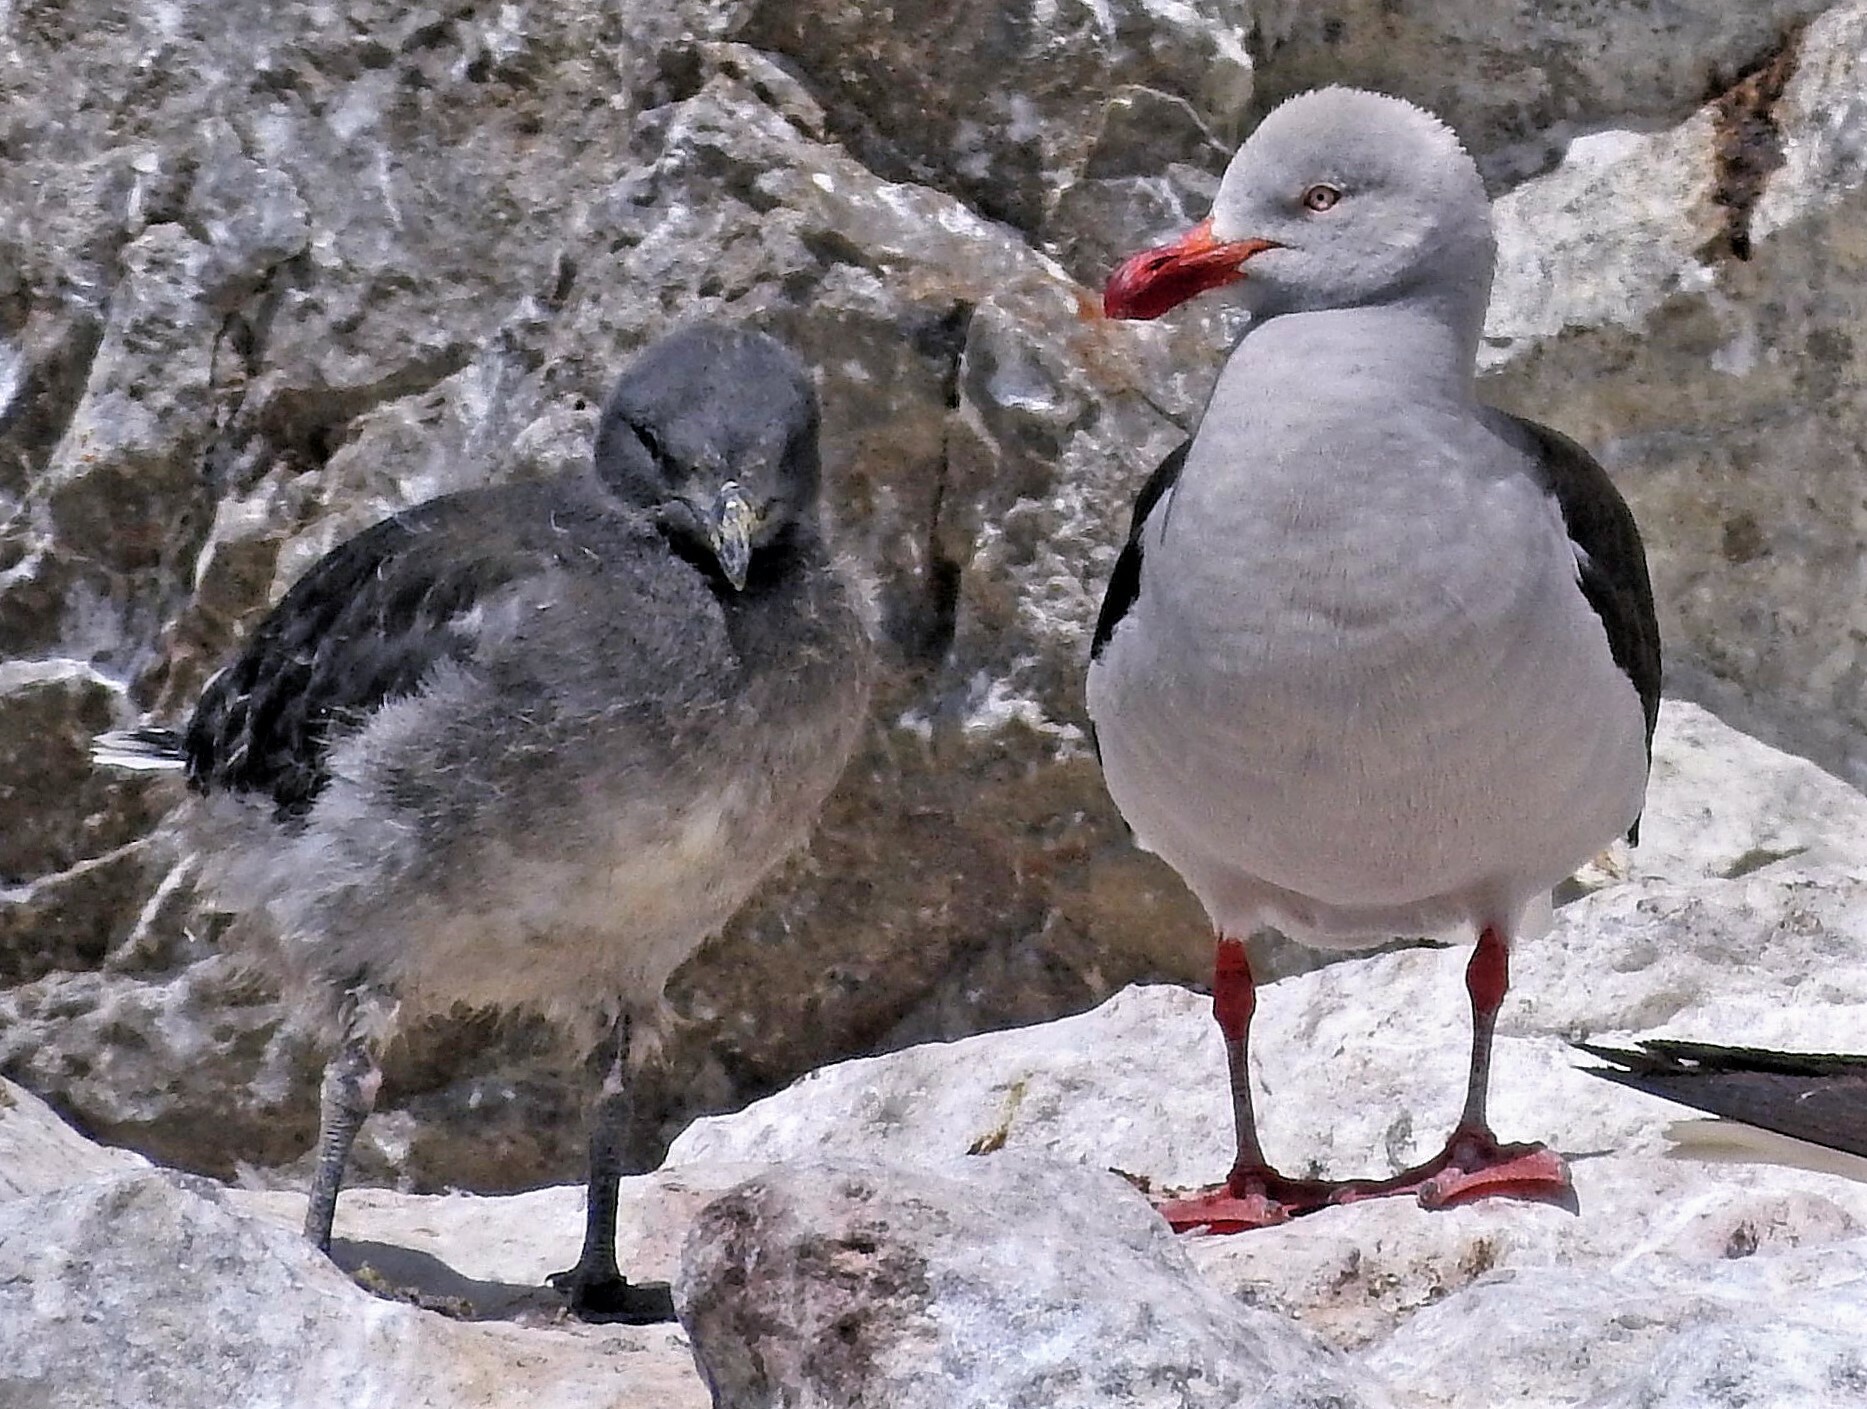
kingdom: Animalia
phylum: Chordata
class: Aves
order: Charadriiformes
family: Laridae
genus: Leucophaeus
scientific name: Leucophaeus scoresbii
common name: Dolphin gull
